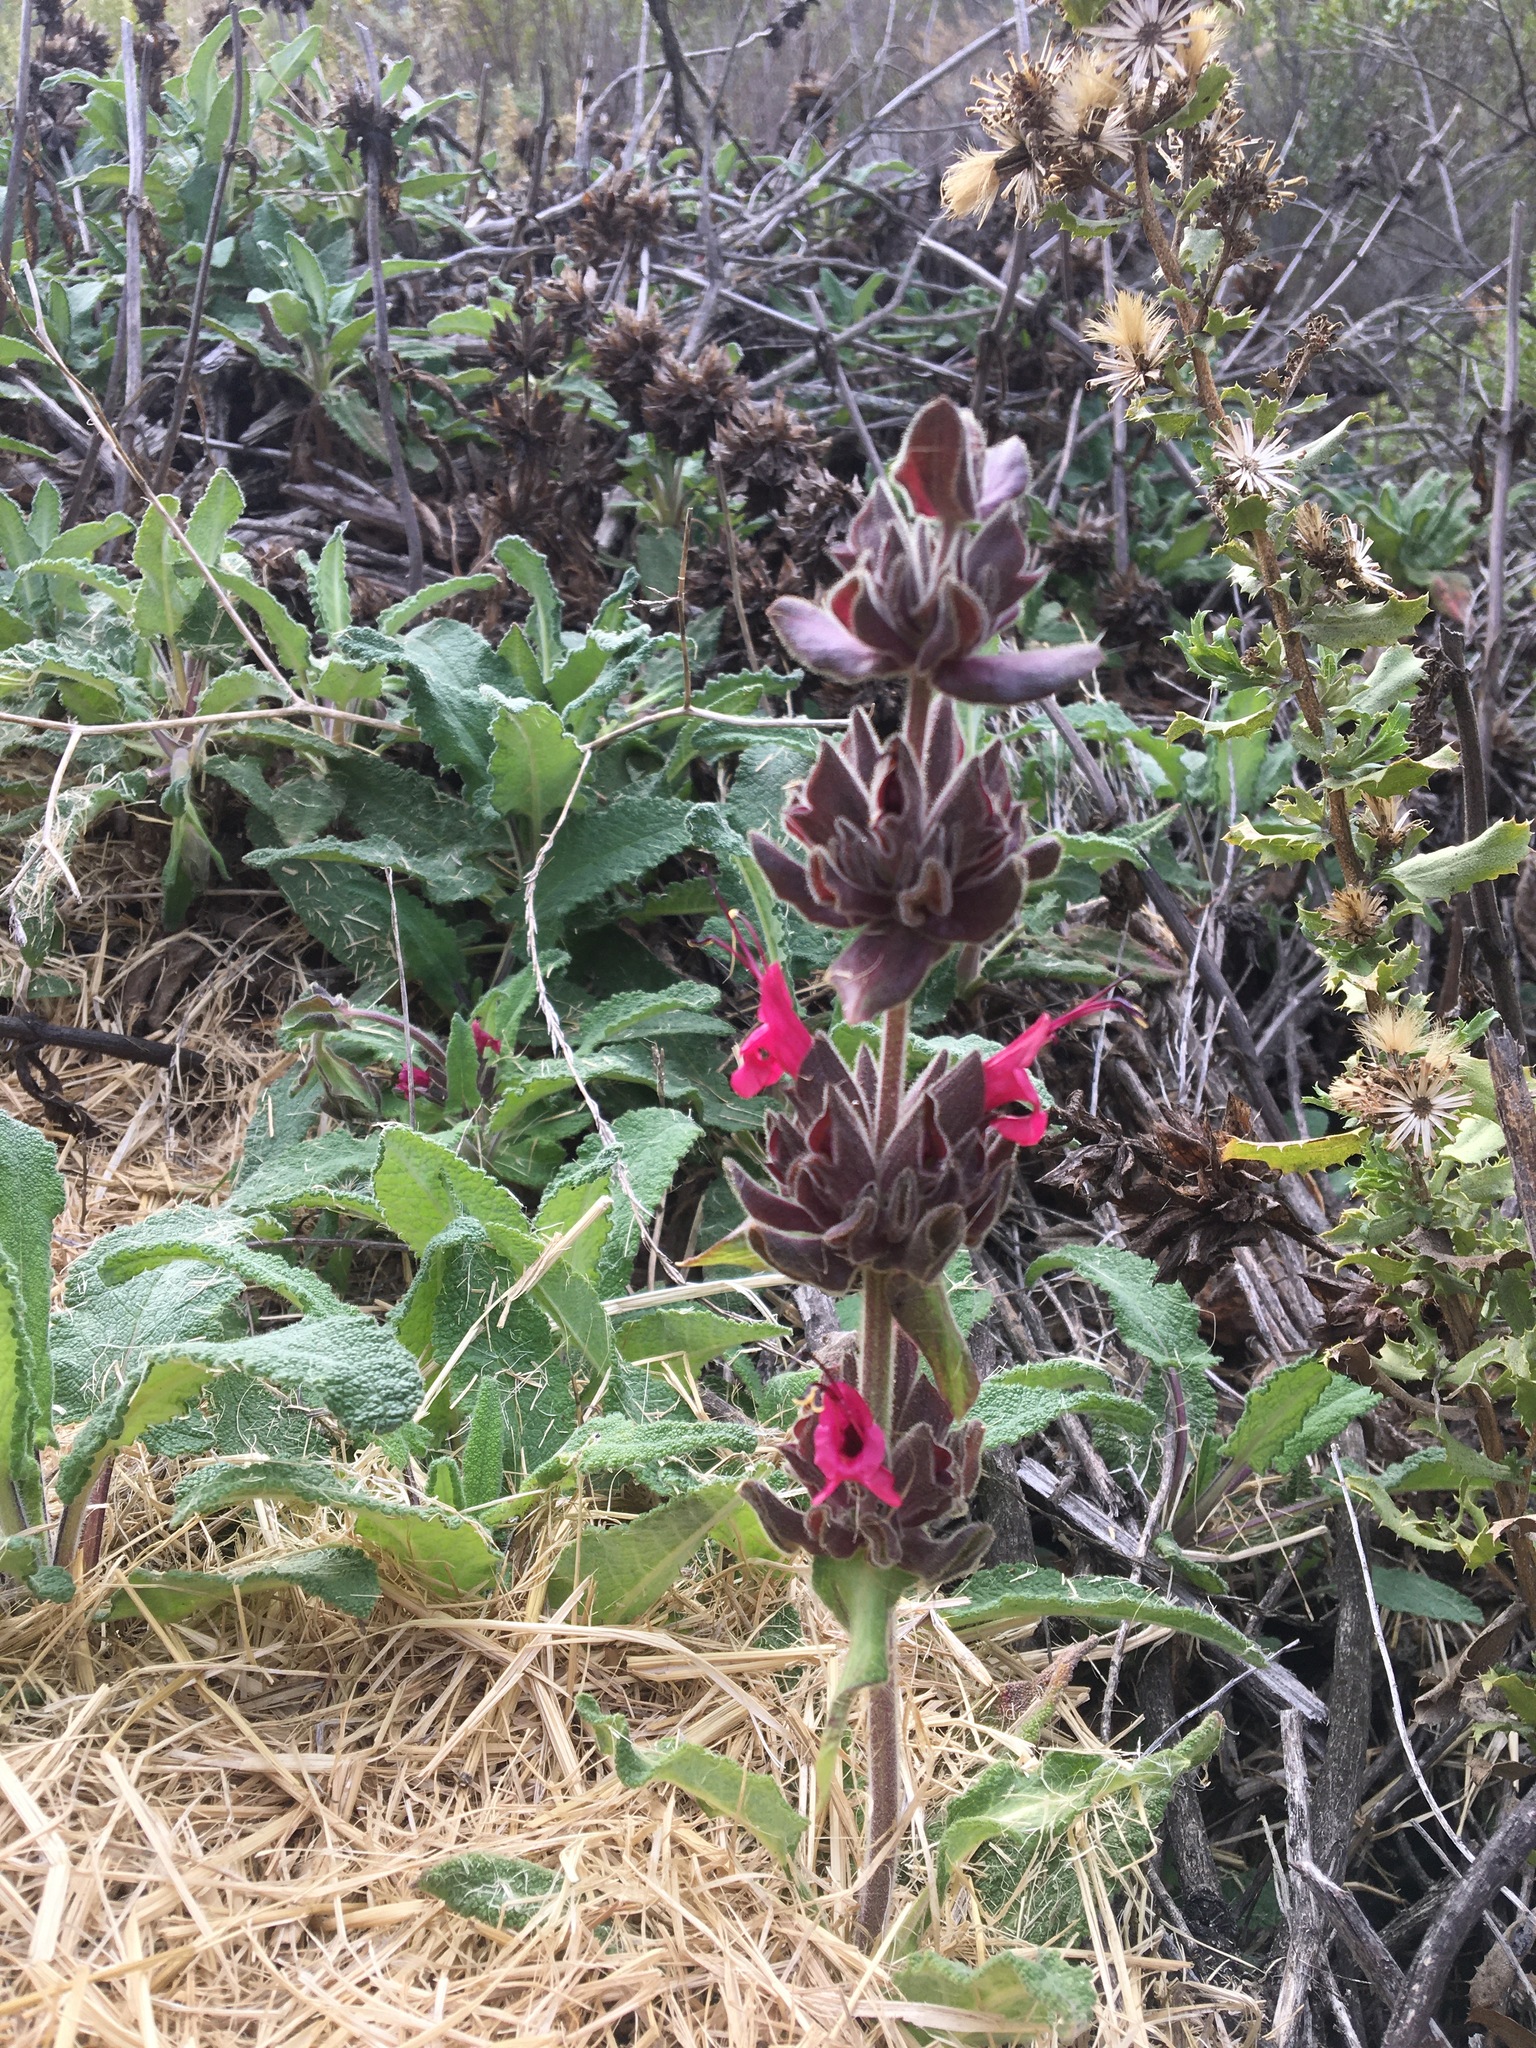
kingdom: Plantae
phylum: Tracheophyta
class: Magnoliopsida
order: Lamiales
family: Lamiaceae
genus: Salvia
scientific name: Salvia spathacea
